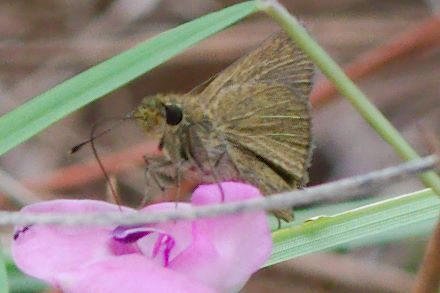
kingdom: Animalia
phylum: Arthropoda
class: Insecta
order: Lepidoptera
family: Hesperiidae
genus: Nastra
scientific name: Nastra lherminier
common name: Swarthy skipper
